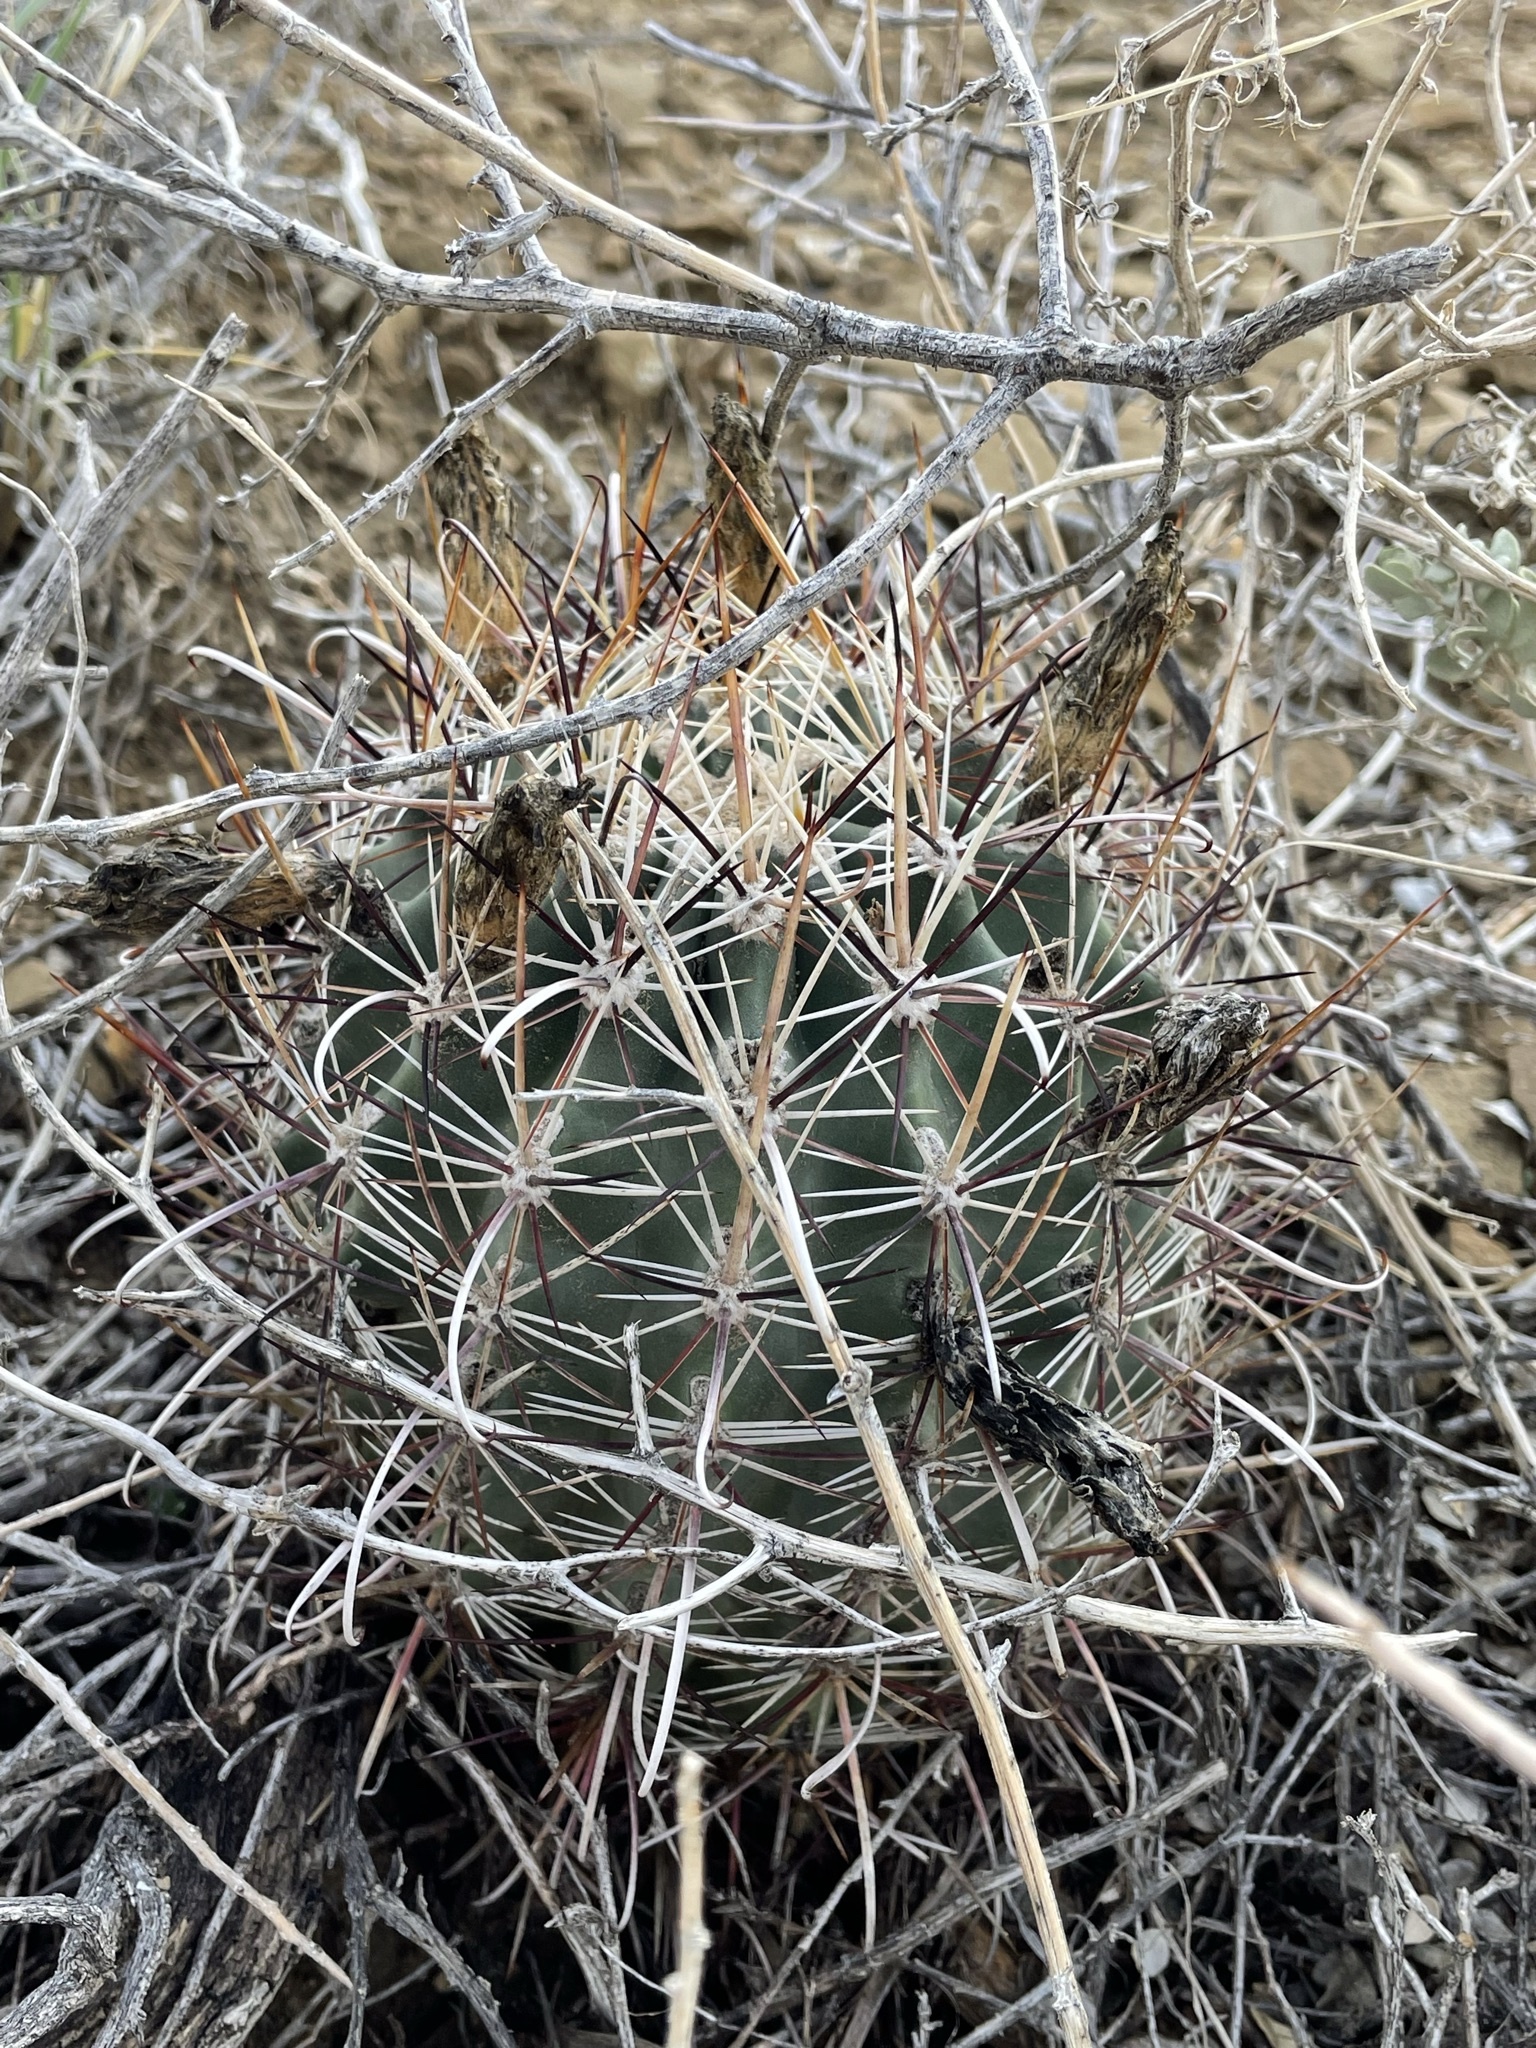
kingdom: Plantae
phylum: Tracheophyta
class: Magnoliopsida
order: Caryophyllales
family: Cactaceae
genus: Sclerocactus
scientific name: Sclerocactus parviflorus
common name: Small-flower fishhook cactus
